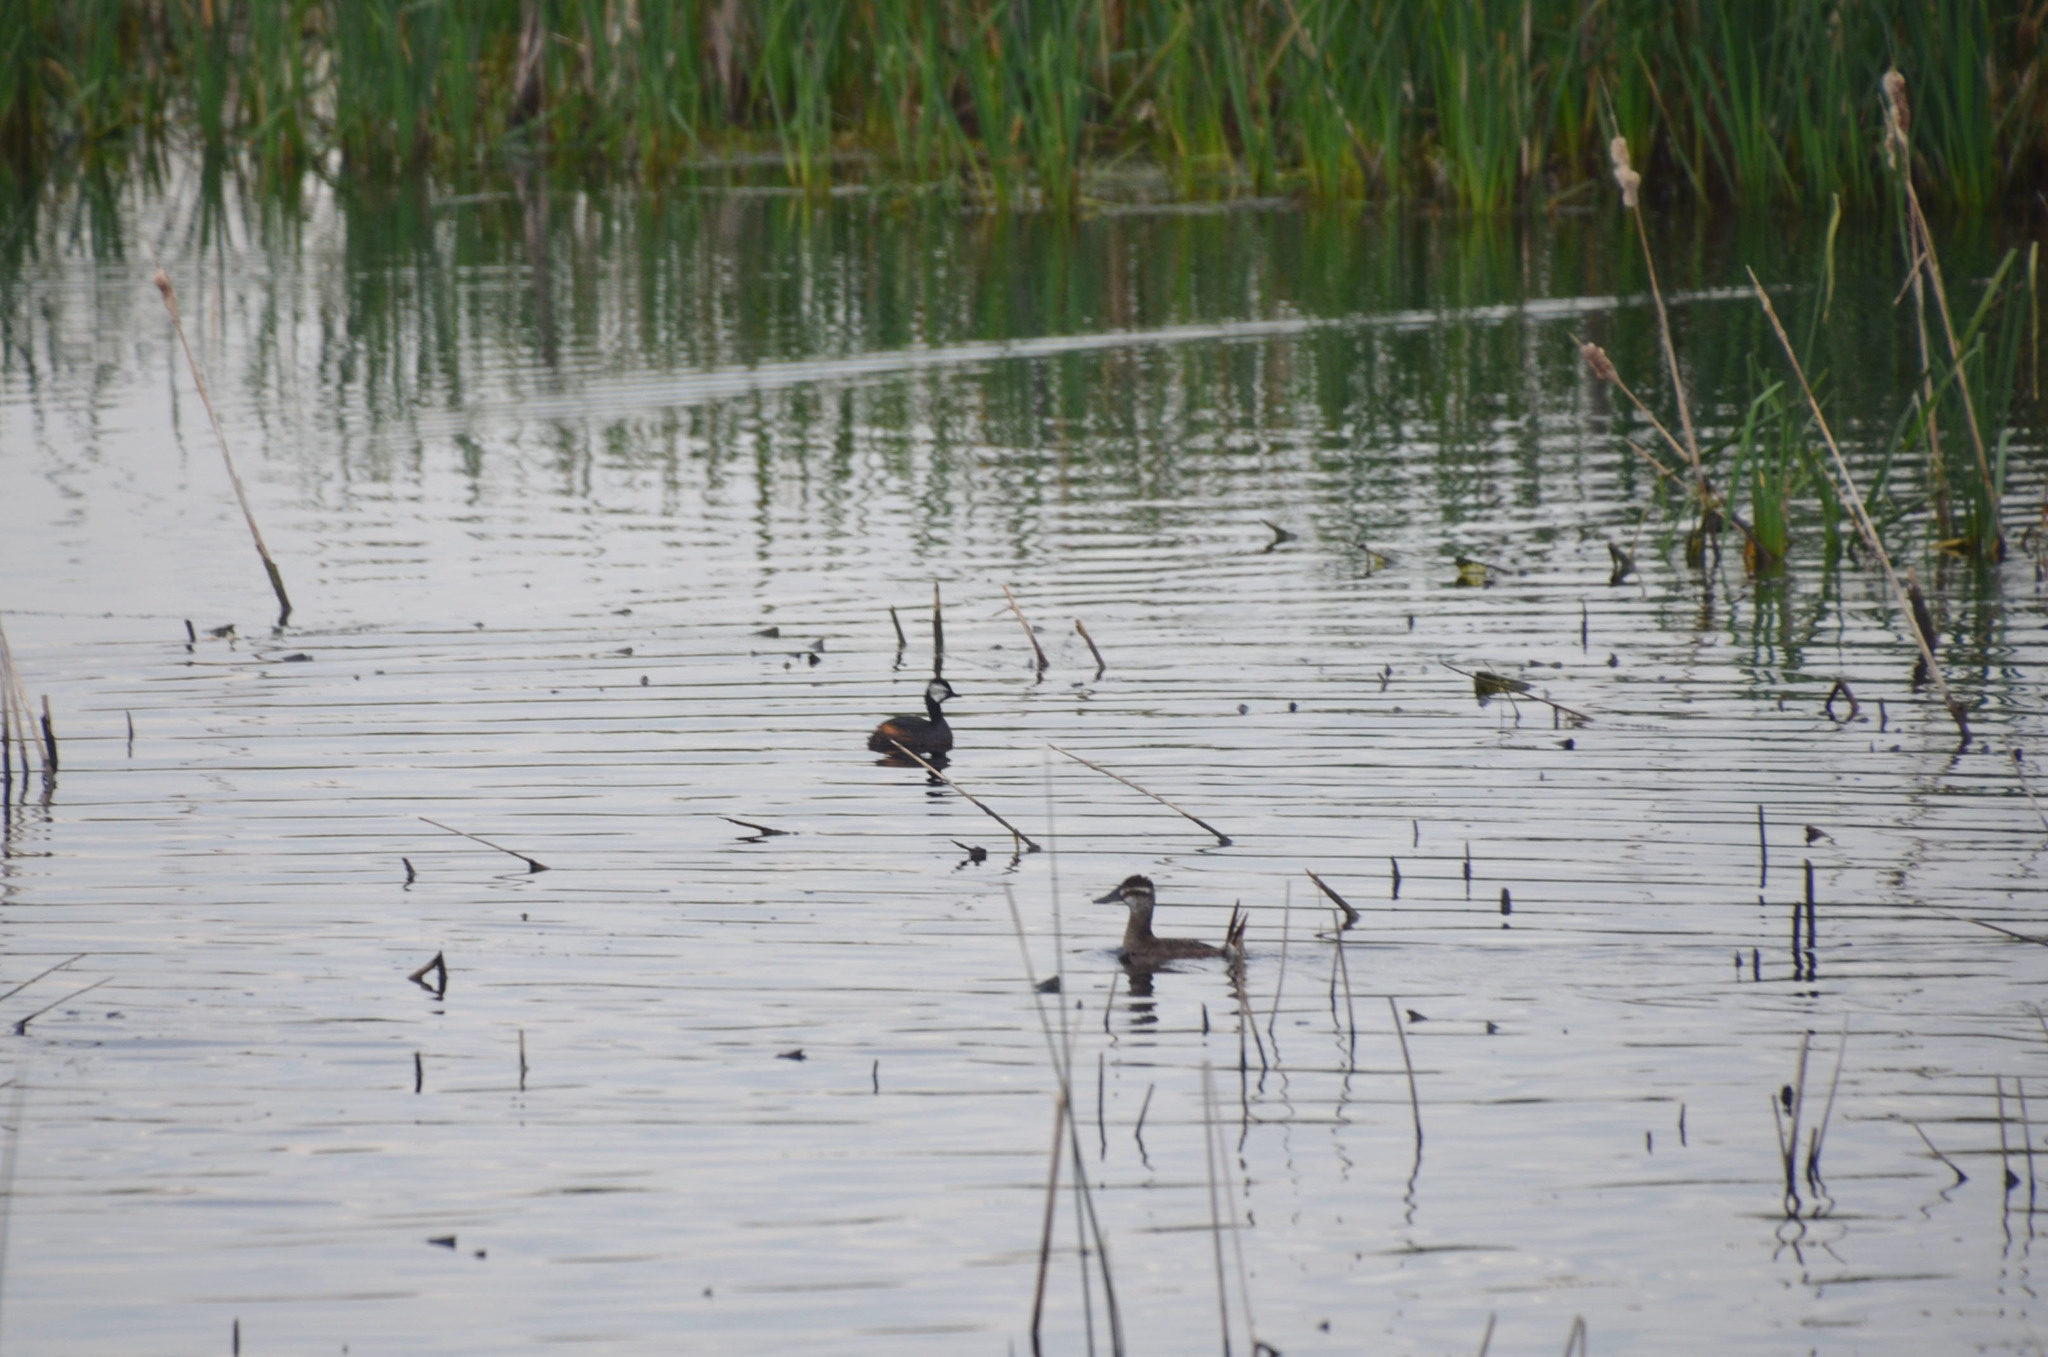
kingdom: Animalia
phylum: Chordata
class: Aves
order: Podicipediformes
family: Podicipedidae
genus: Rollandia
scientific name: Rollandia rolland
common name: White-tufted grebe
